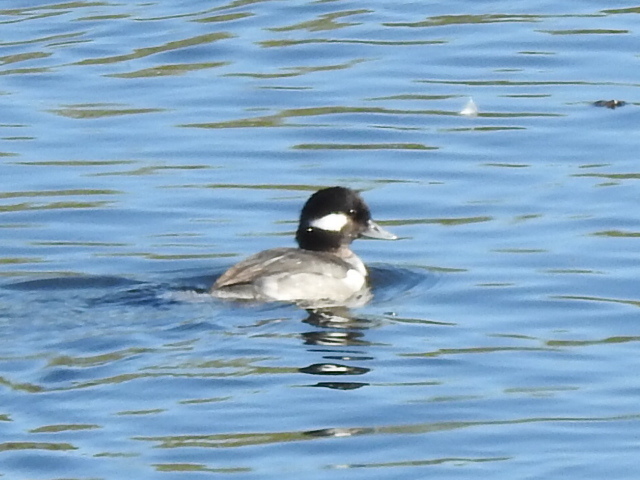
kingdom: Animalia
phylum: Chordata
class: Aves
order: Anseriformes
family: Anatidae
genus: Bucephala
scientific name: Bucephala albeola
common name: Bufflehead
